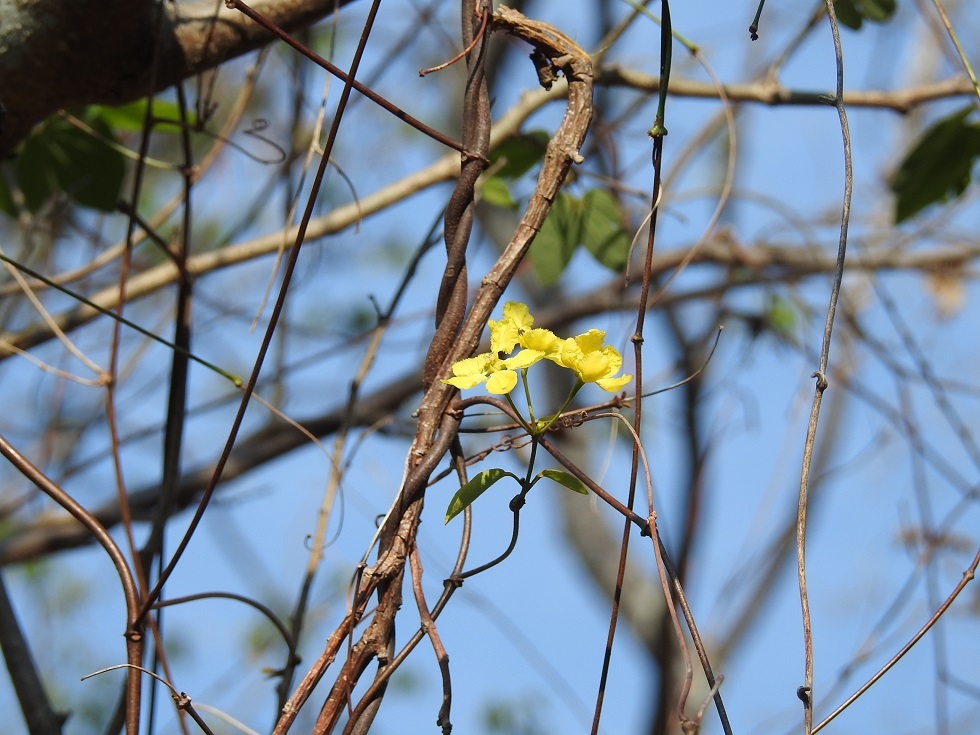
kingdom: Plantae
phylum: Tracheophyta
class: Magnoliopsida
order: Malpighiales
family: Malpighiaceae
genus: Stigmaphyllon
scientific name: Stigmaphyllon dichotomum
